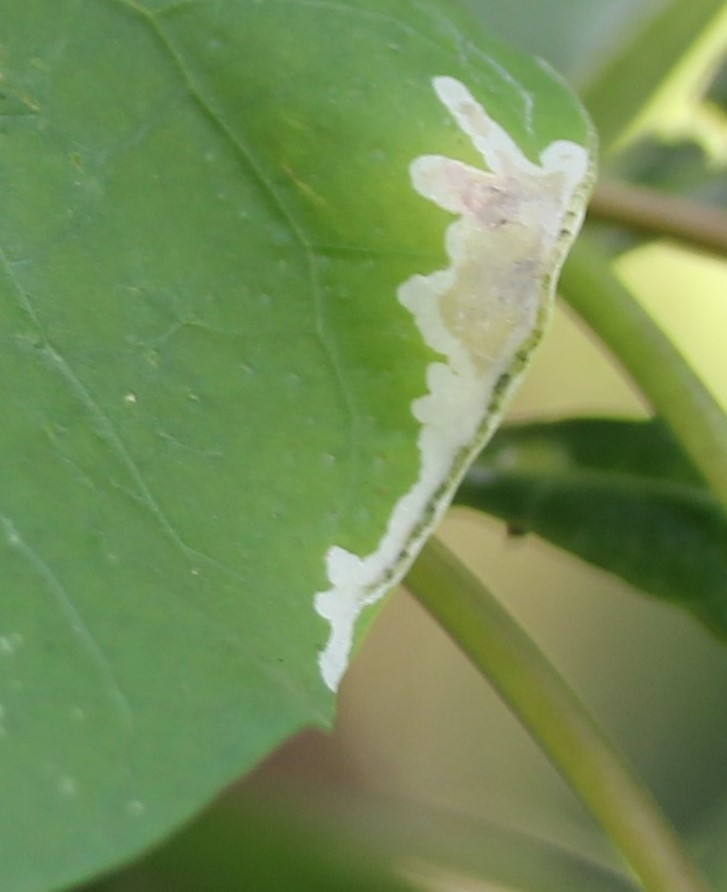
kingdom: Animalia
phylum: Arthropoda
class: Insecta
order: Diptera
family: Agromyzidae
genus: Calycomyza
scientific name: Calycomyza ipomaeae
